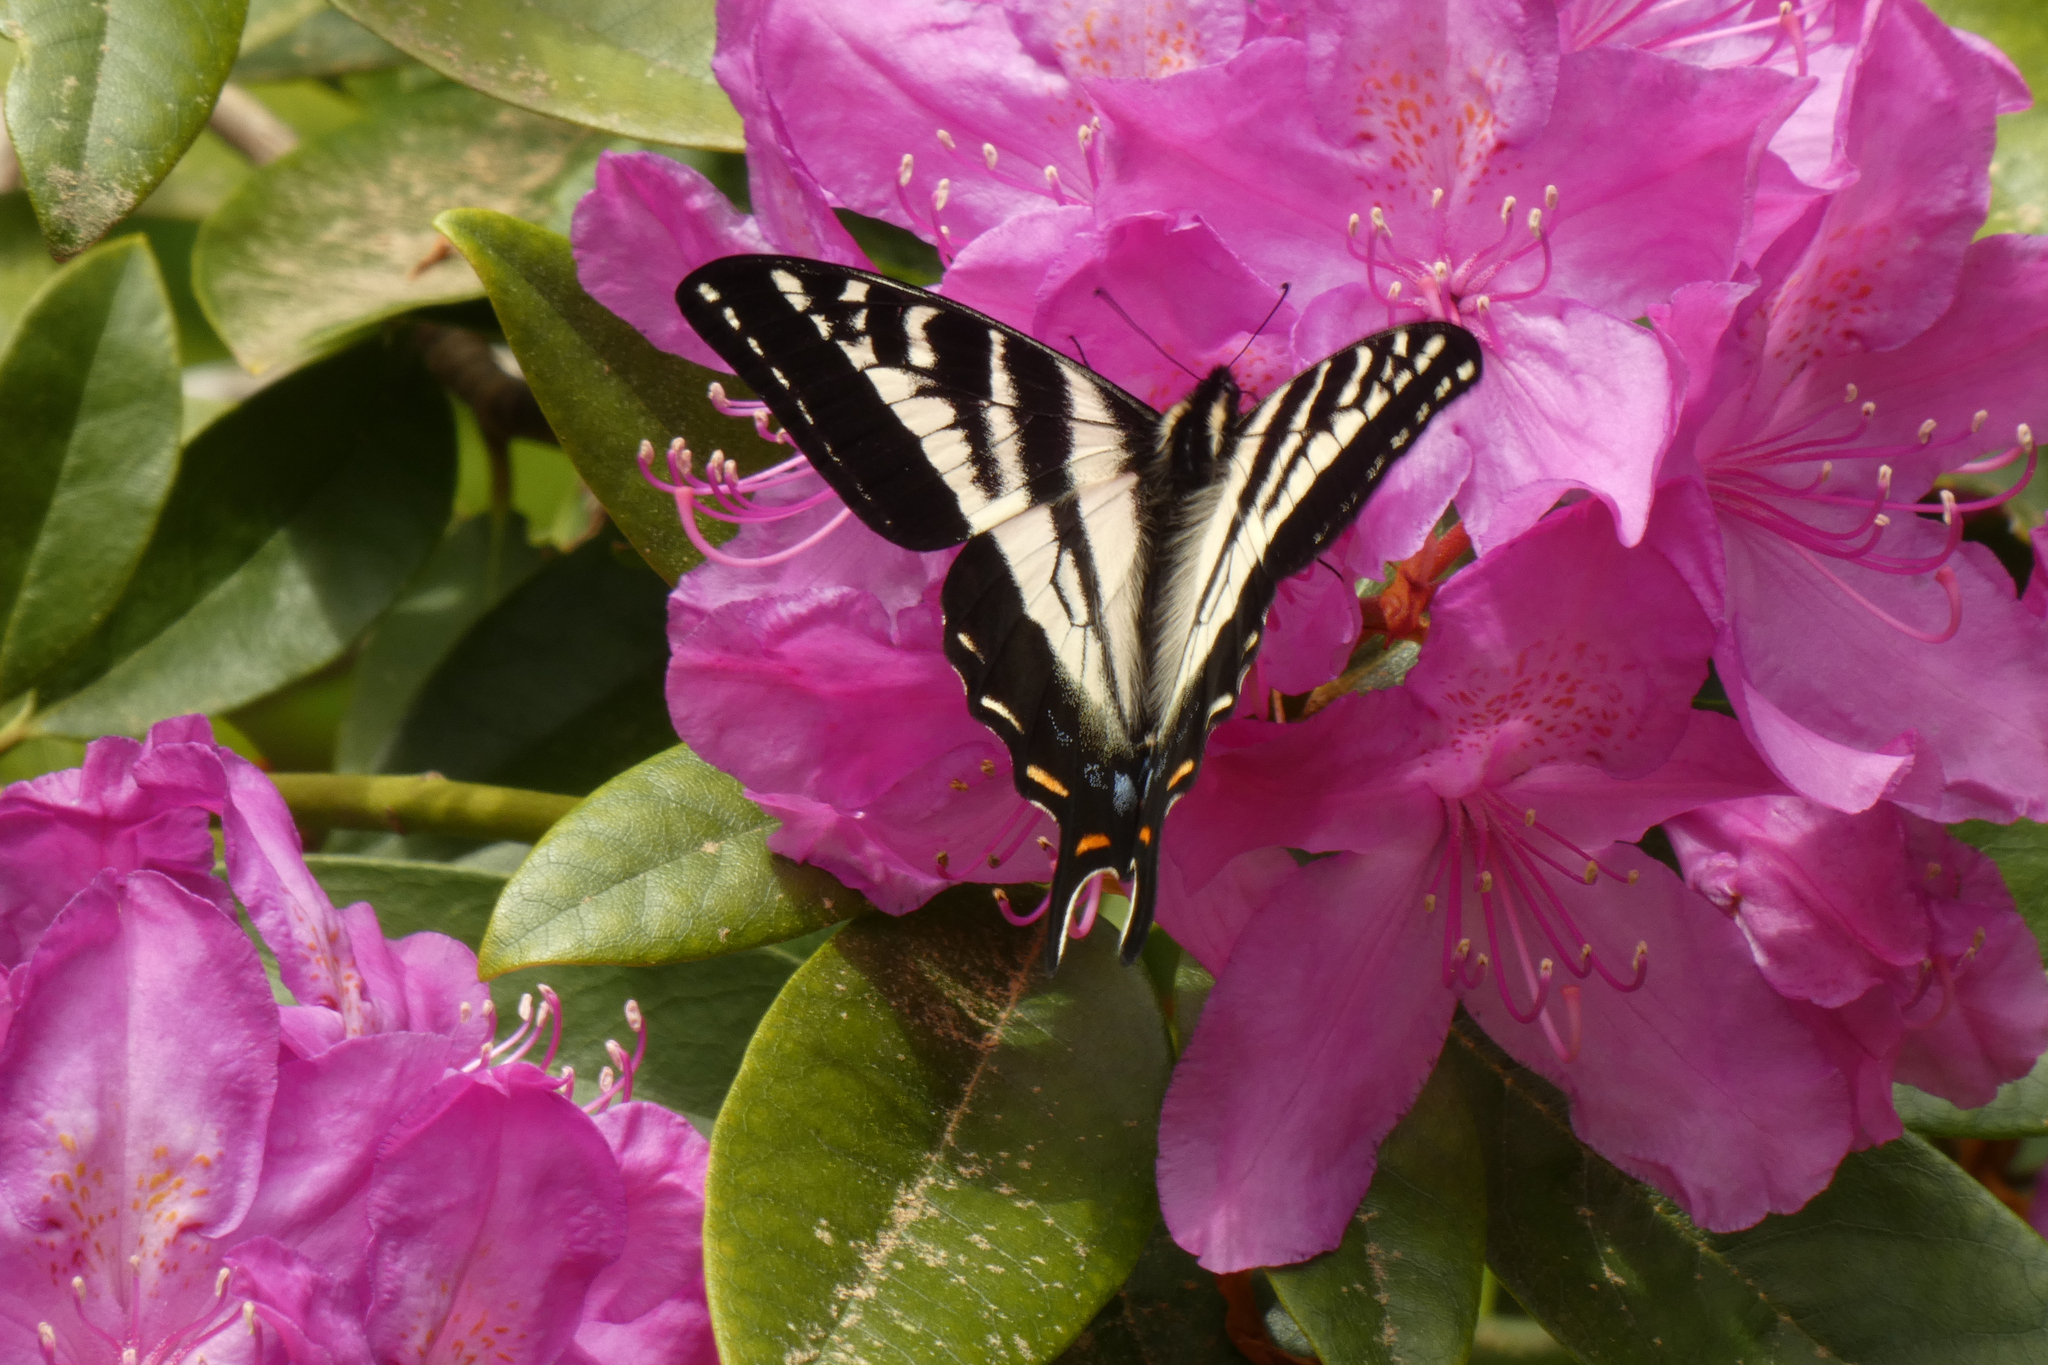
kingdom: Animalia
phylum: Arthropoda
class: Insecta
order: Lepidoptera
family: Papilionidae
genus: Papilio
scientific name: Papilio eurymedon
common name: Pale tiger swallowtail
